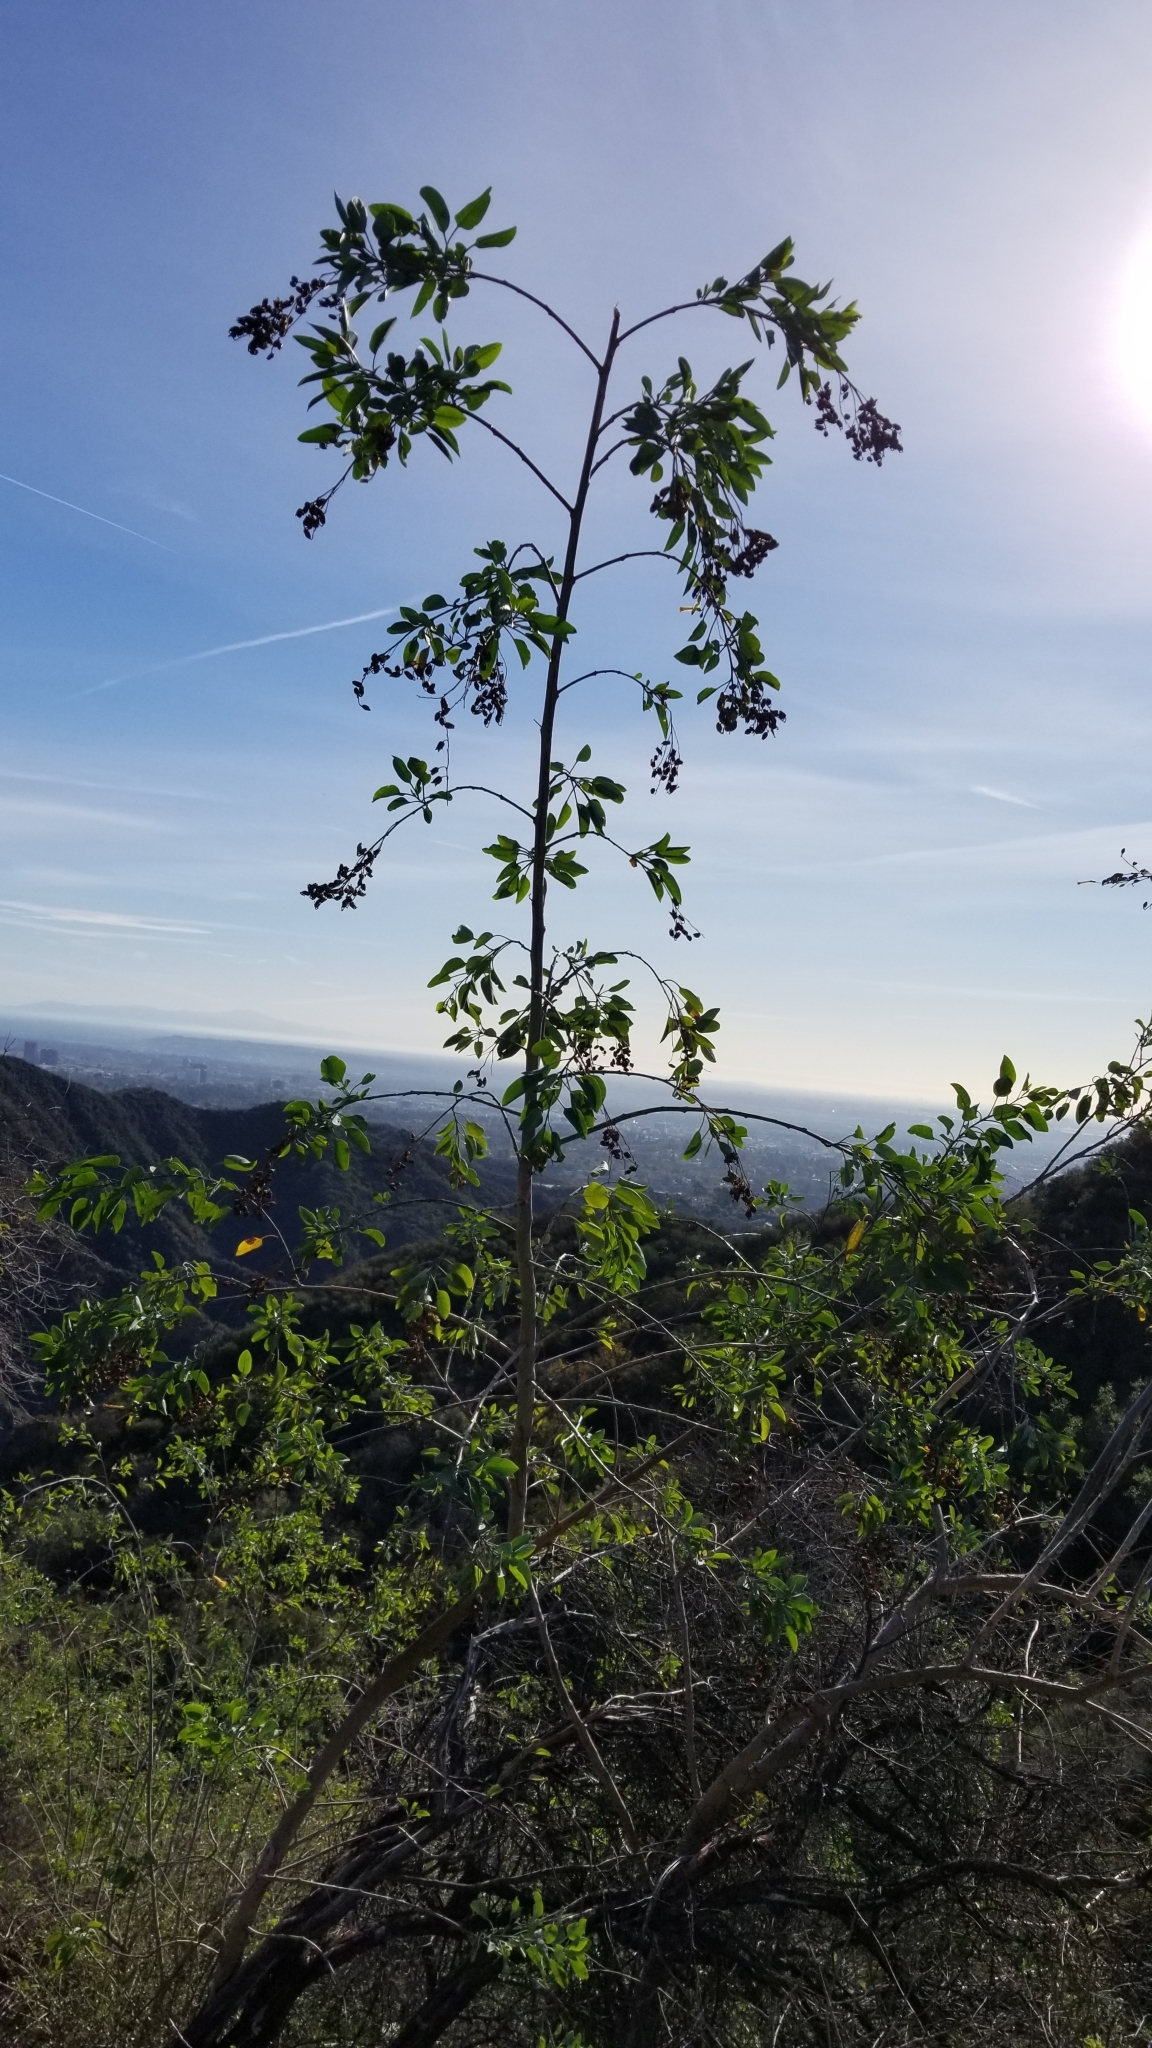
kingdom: Plantae
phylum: Tracheophyta
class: Magnoliopsida
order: Solanales
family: Solanaceae
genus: Nicotiana
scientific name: Nicotiana glauca
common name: Tree tobacco
